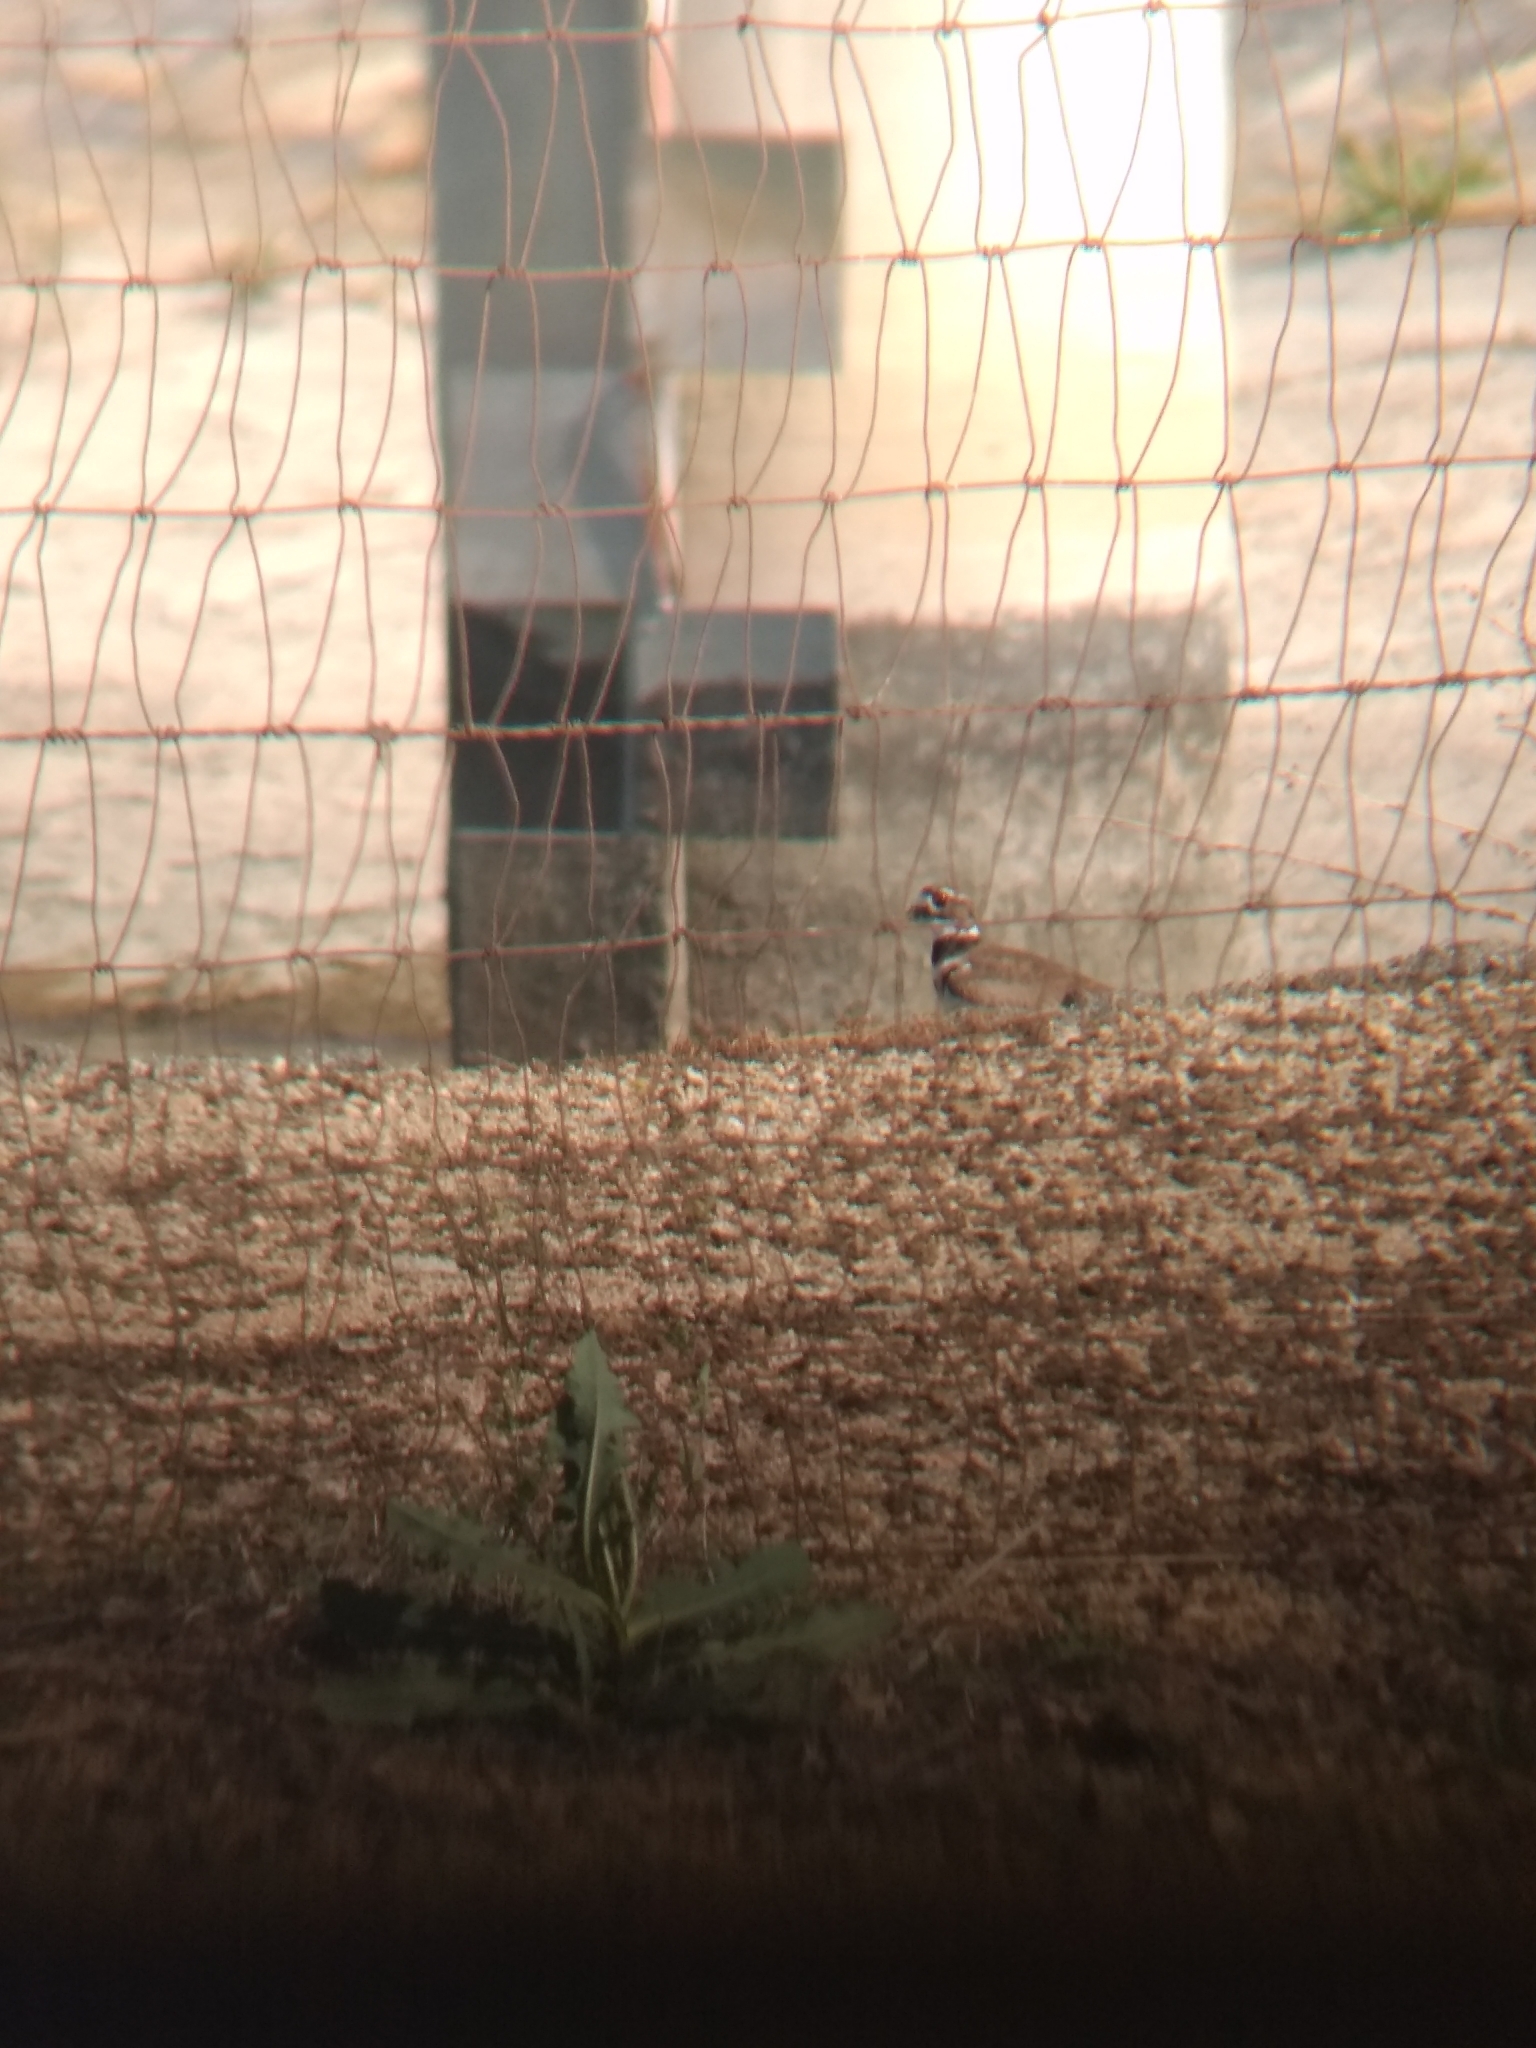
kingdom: Animalia
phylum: Chordata
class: Aves
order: Charadriiformes
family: Charadriidae
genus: Charadrius
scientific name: Charadrius vociferus
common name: Killdeer
